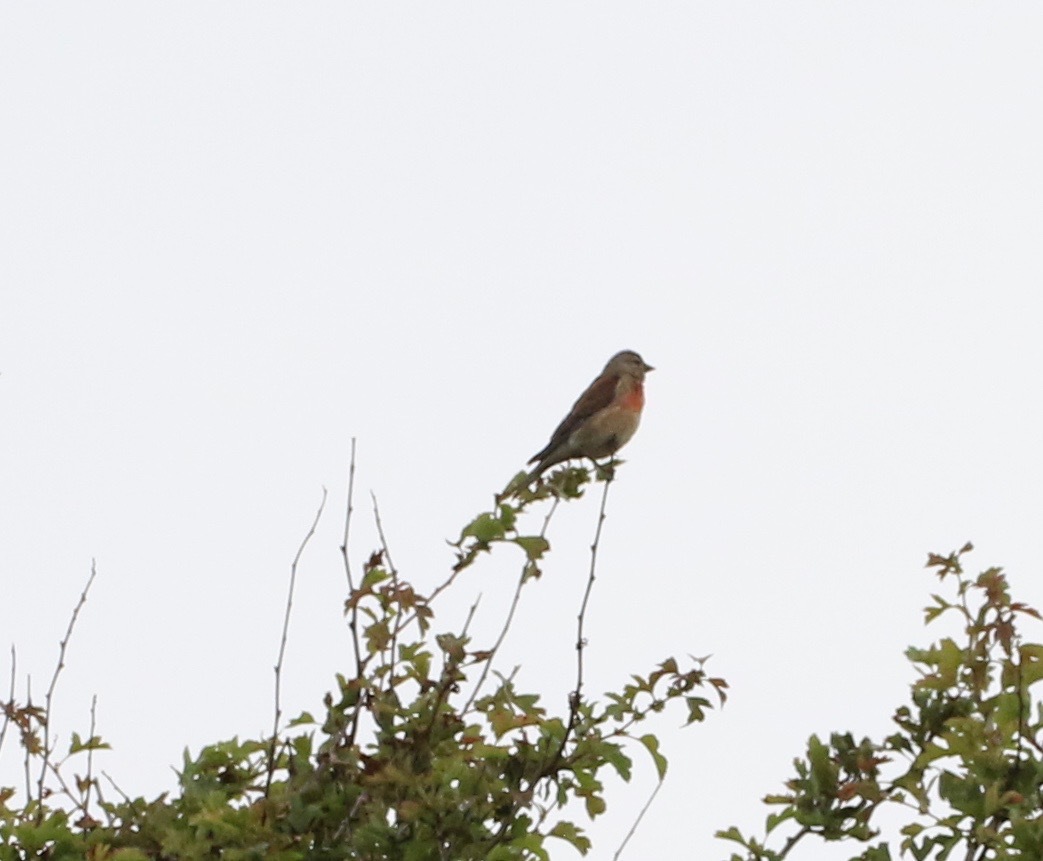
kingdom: Animalia
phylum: Chordata
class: Aves
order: Passeriformes
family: Fringillidae
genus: Linaria
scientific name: Linaria cannabina
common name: Common linnet
